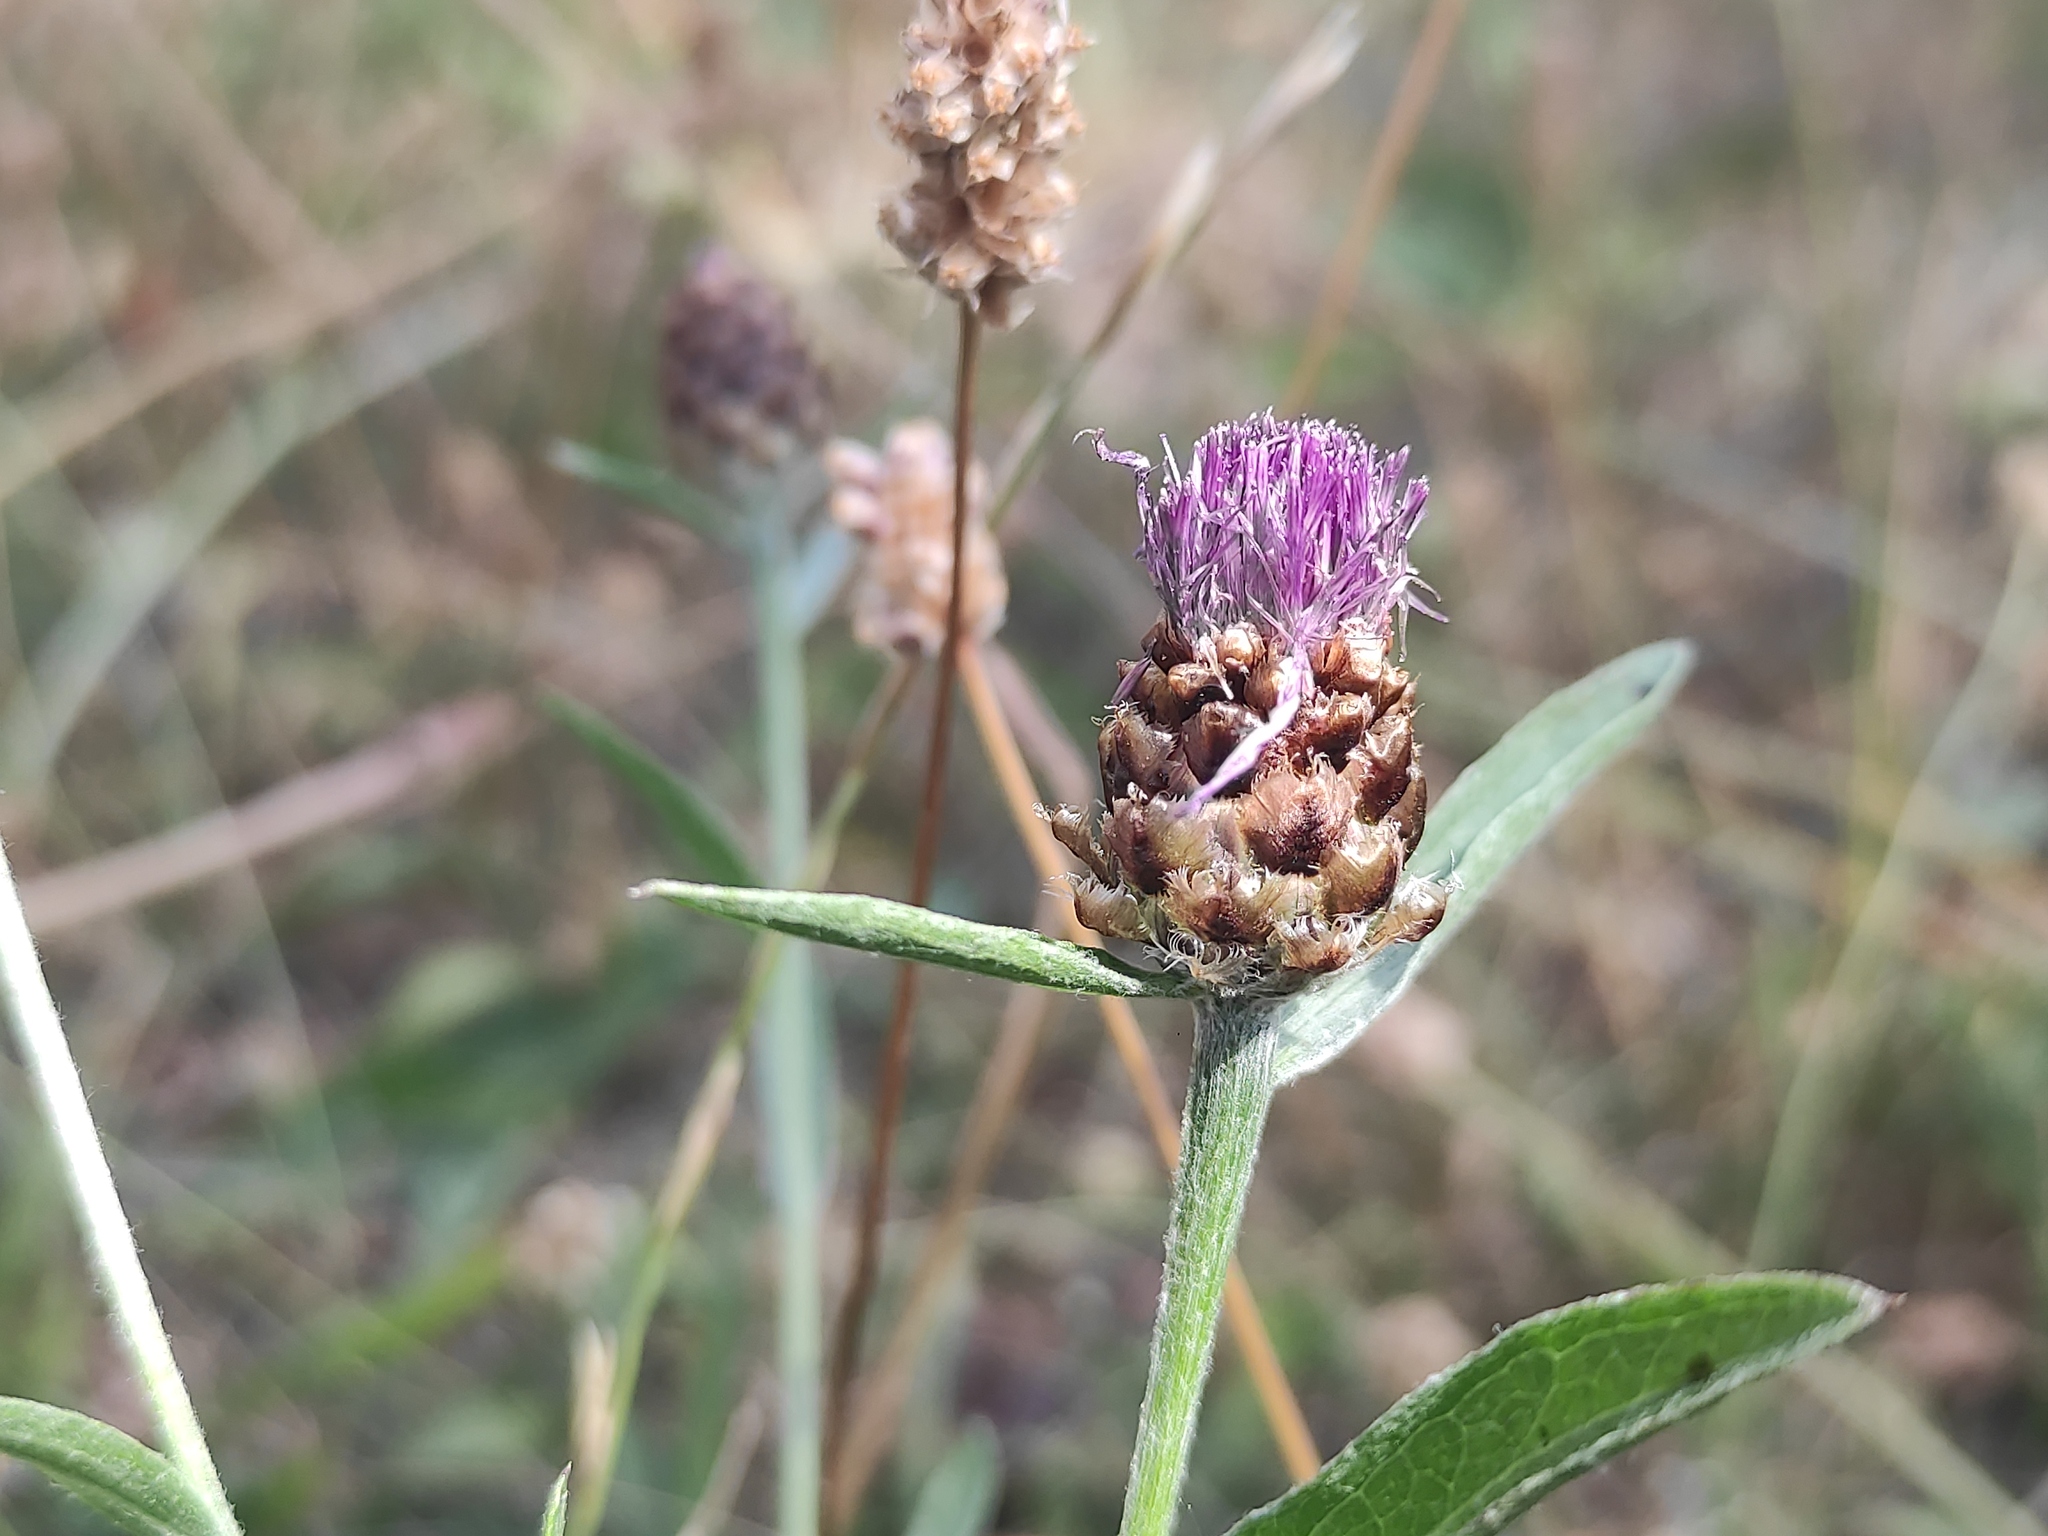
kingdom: Plantae
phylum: Tracheophyta
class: Magnoliopsida
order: Asterales
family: Asteraceae
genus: Centaurea
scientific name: Centaurea timbalii
